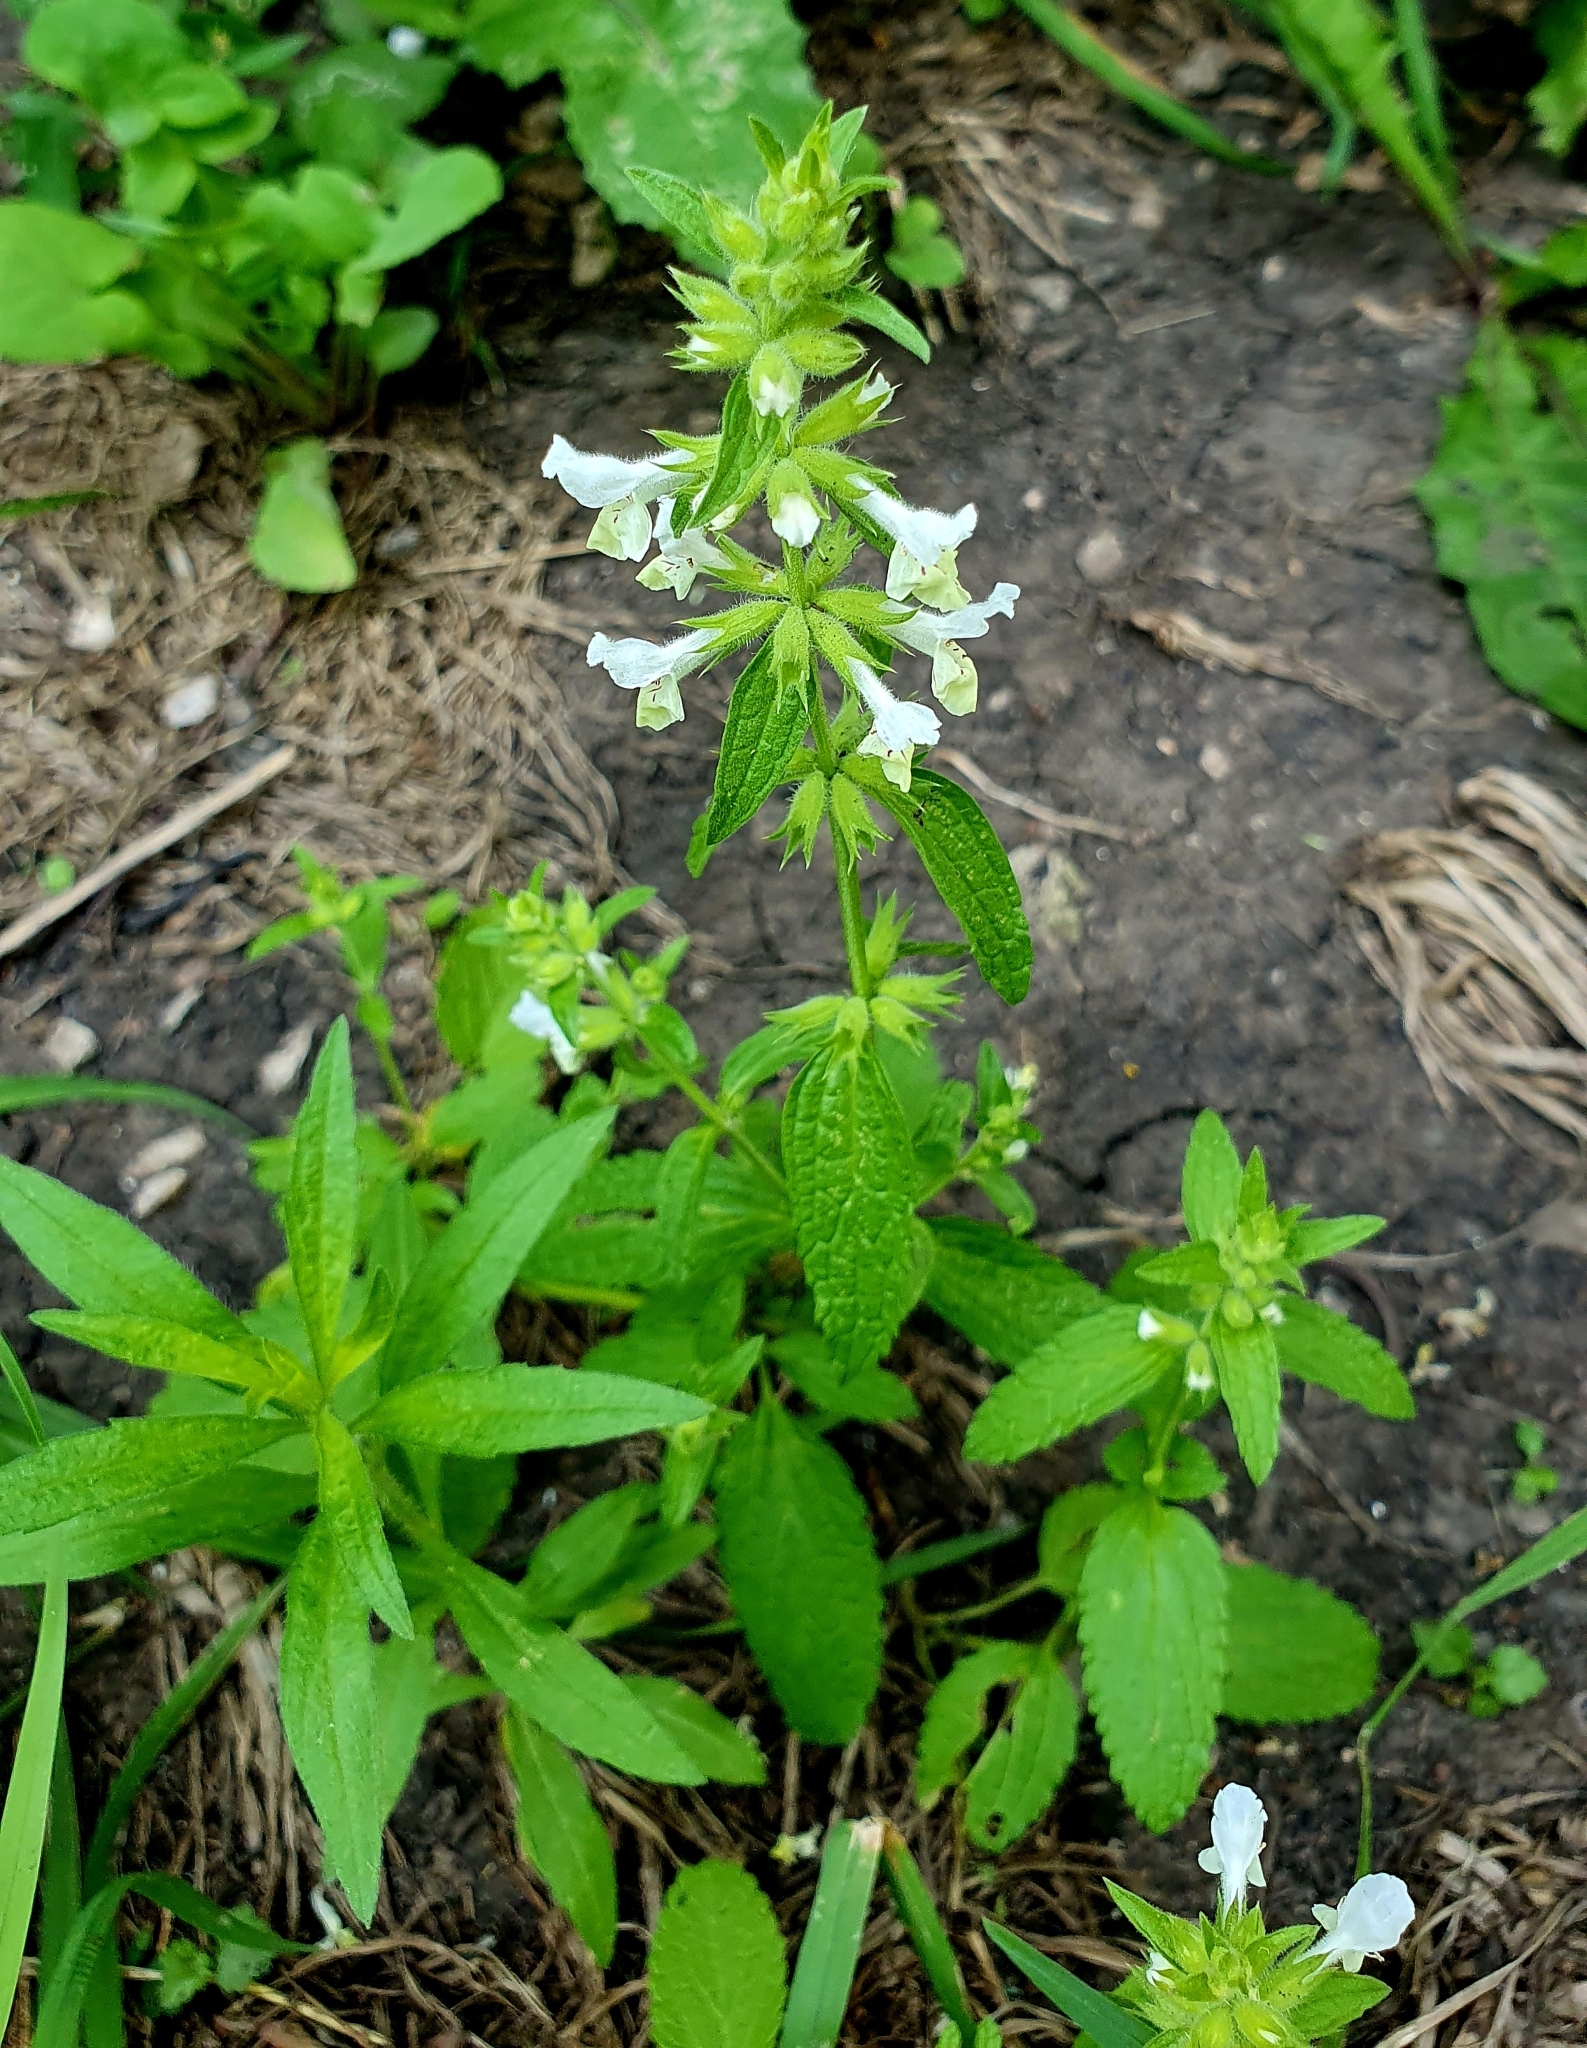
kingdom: Plantae
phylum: Tracheophyta
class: Magnoliopsida
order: Lamiales
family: Lamiaceae
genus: Stachys
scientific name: Stachys annua
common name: Annual yellow-woundwort
